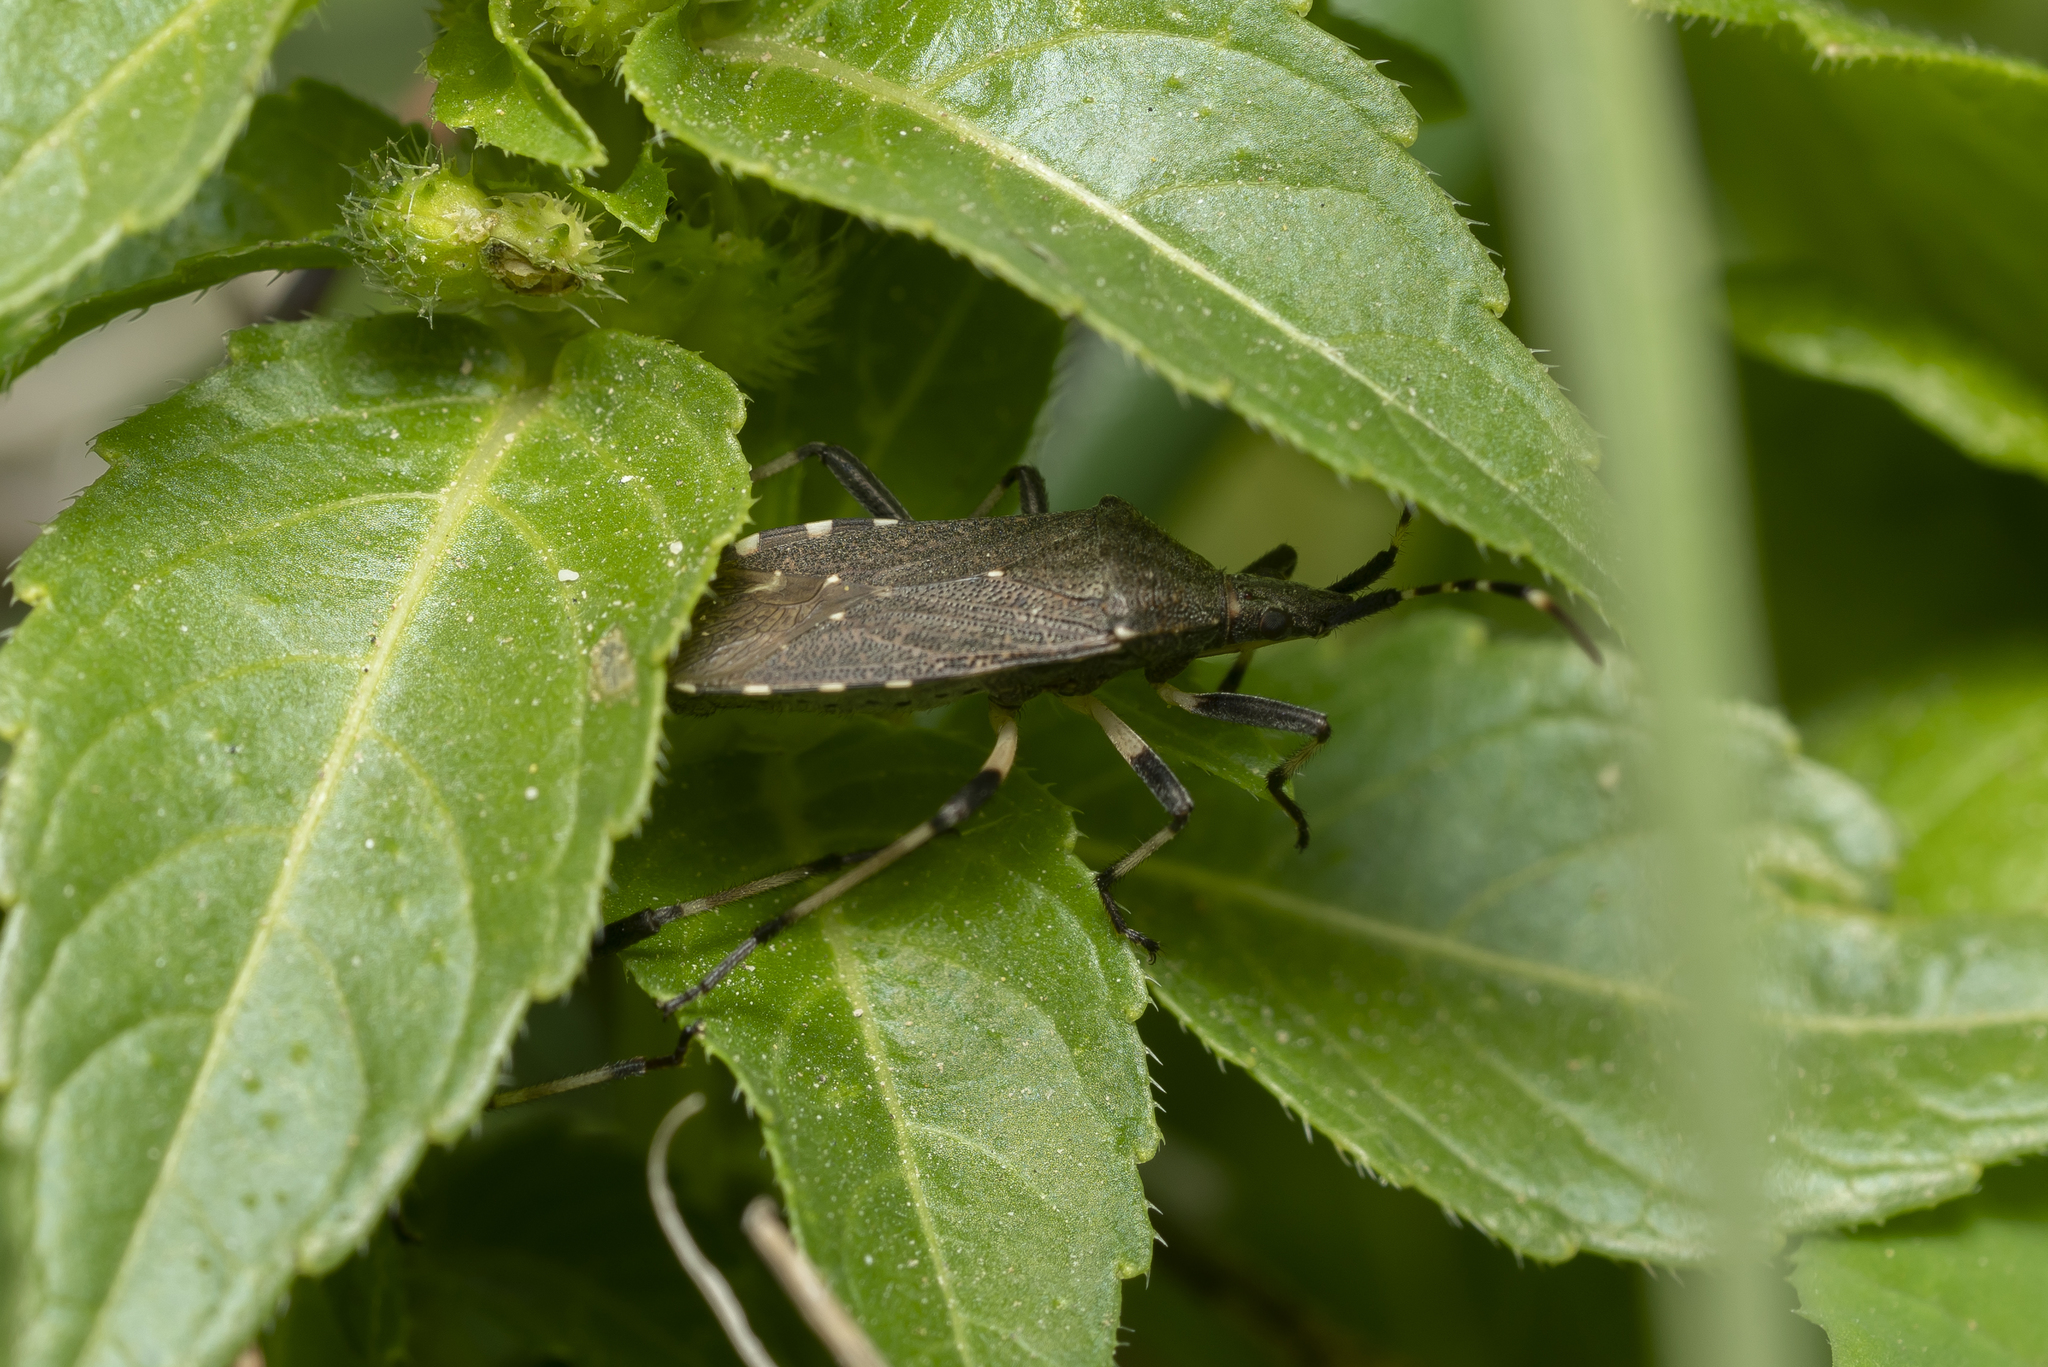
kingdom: Animalia
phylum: Arthropoda
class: Insecta
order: Hemiptera
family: Stenocephalidae
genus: Dicranocephalus
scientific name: Dicranocephalus agilis
